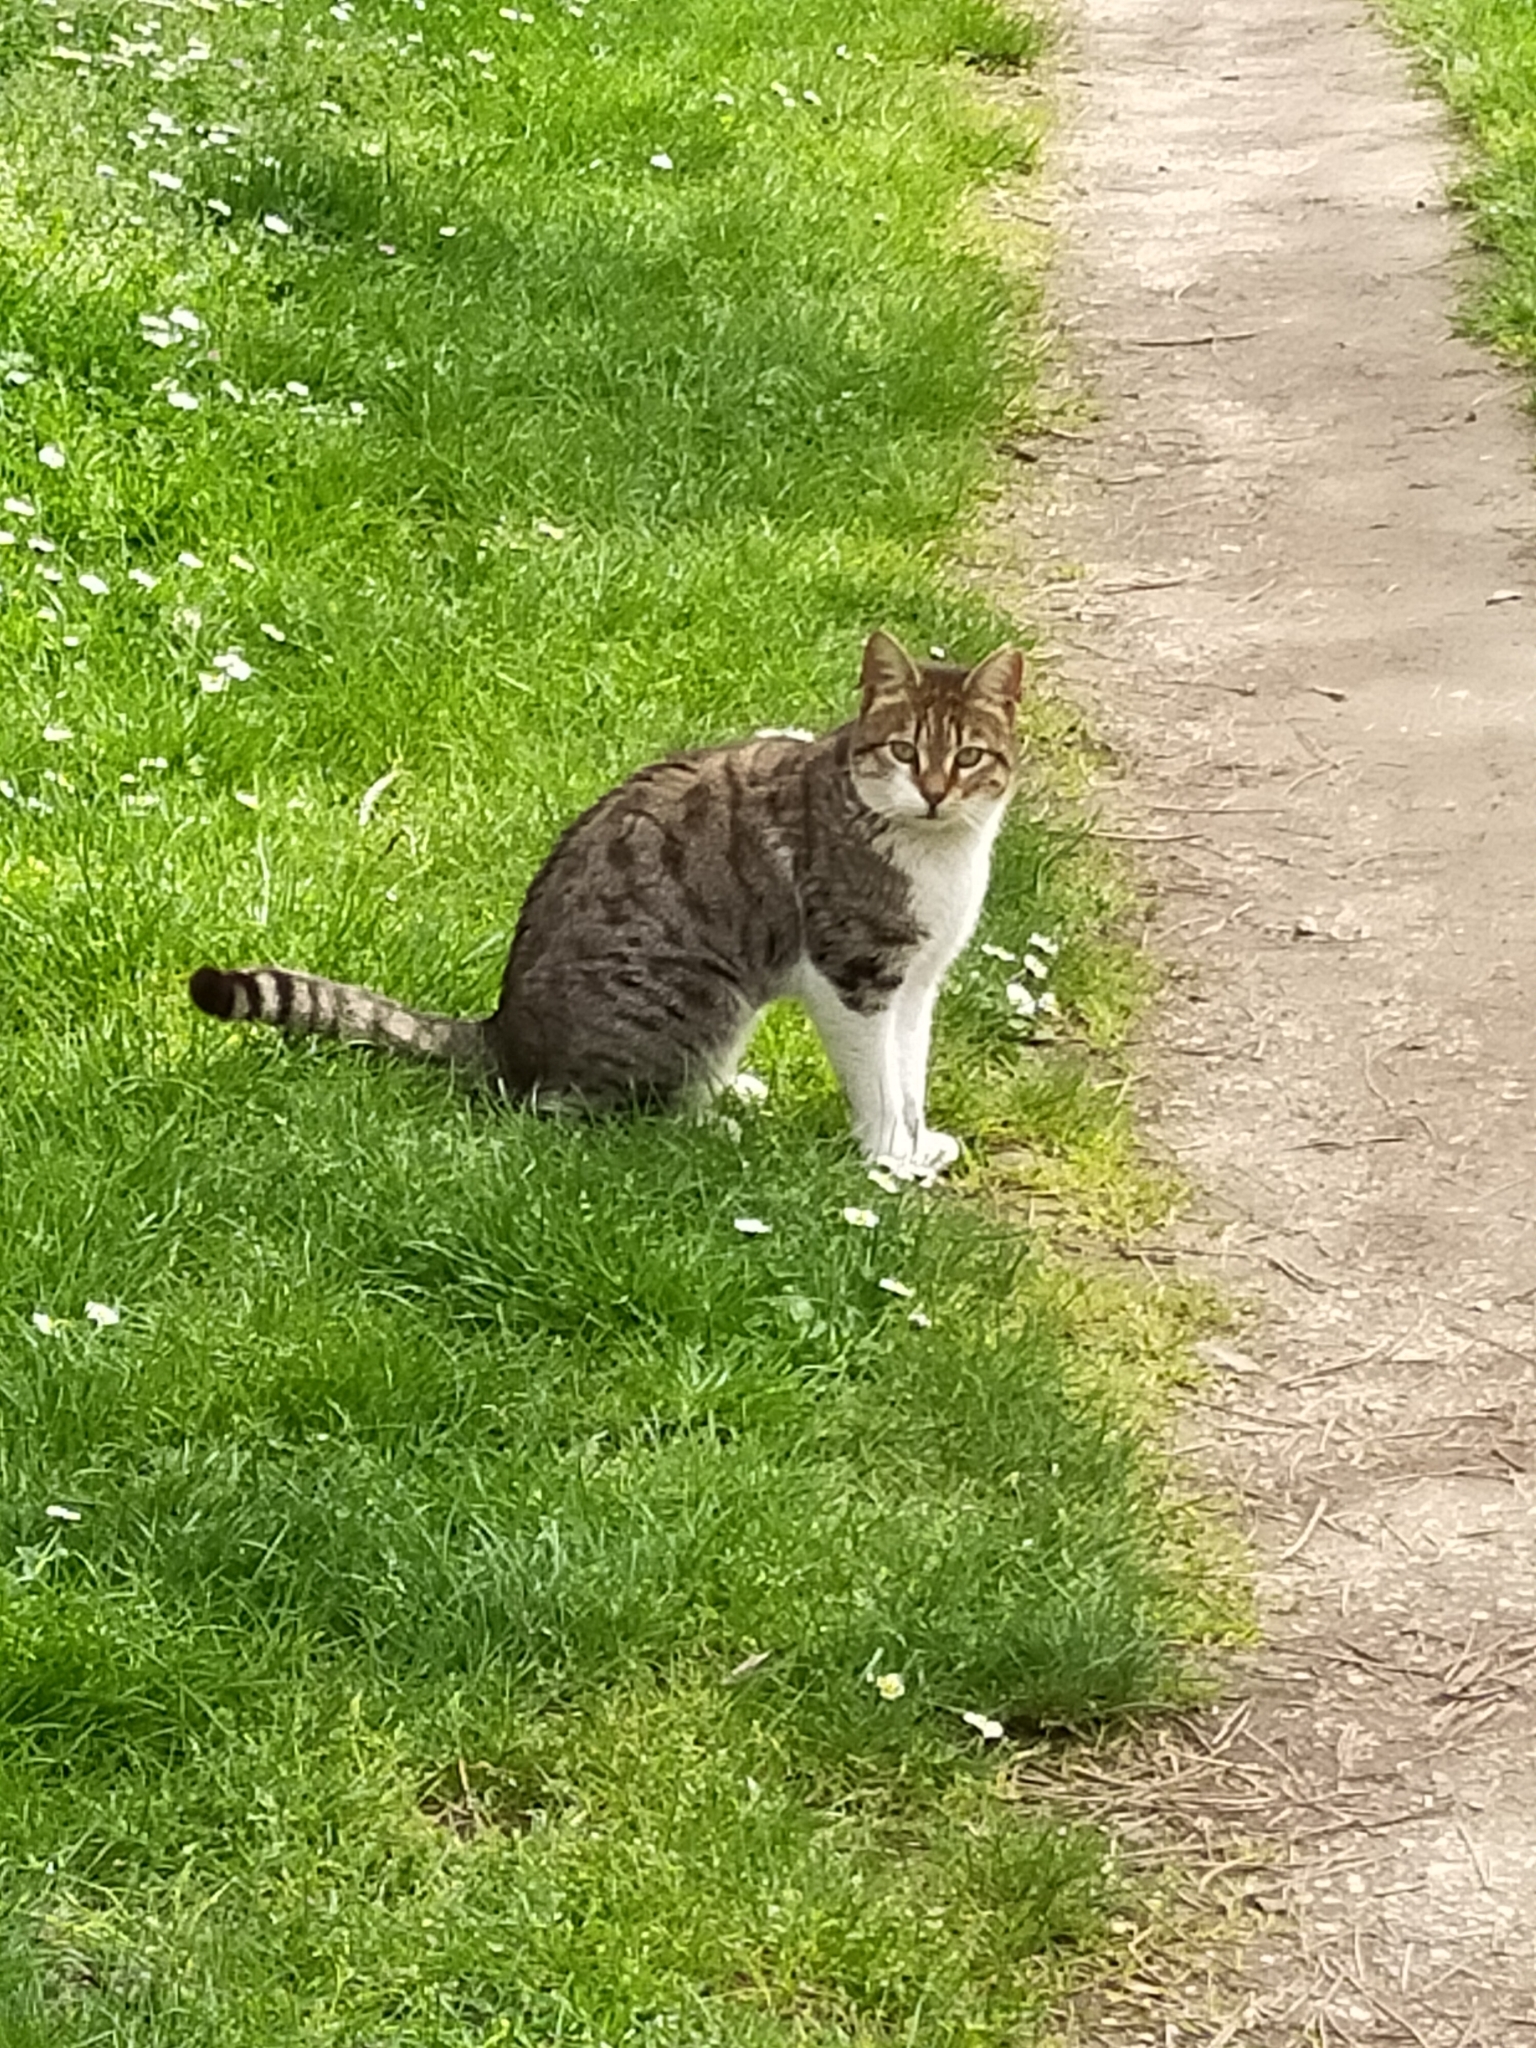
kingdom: Animalia
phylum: Chordata
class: Mammalia
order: Carnivora
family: Felidae
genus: Felis
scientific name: Felis catus
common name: Domestic cat
